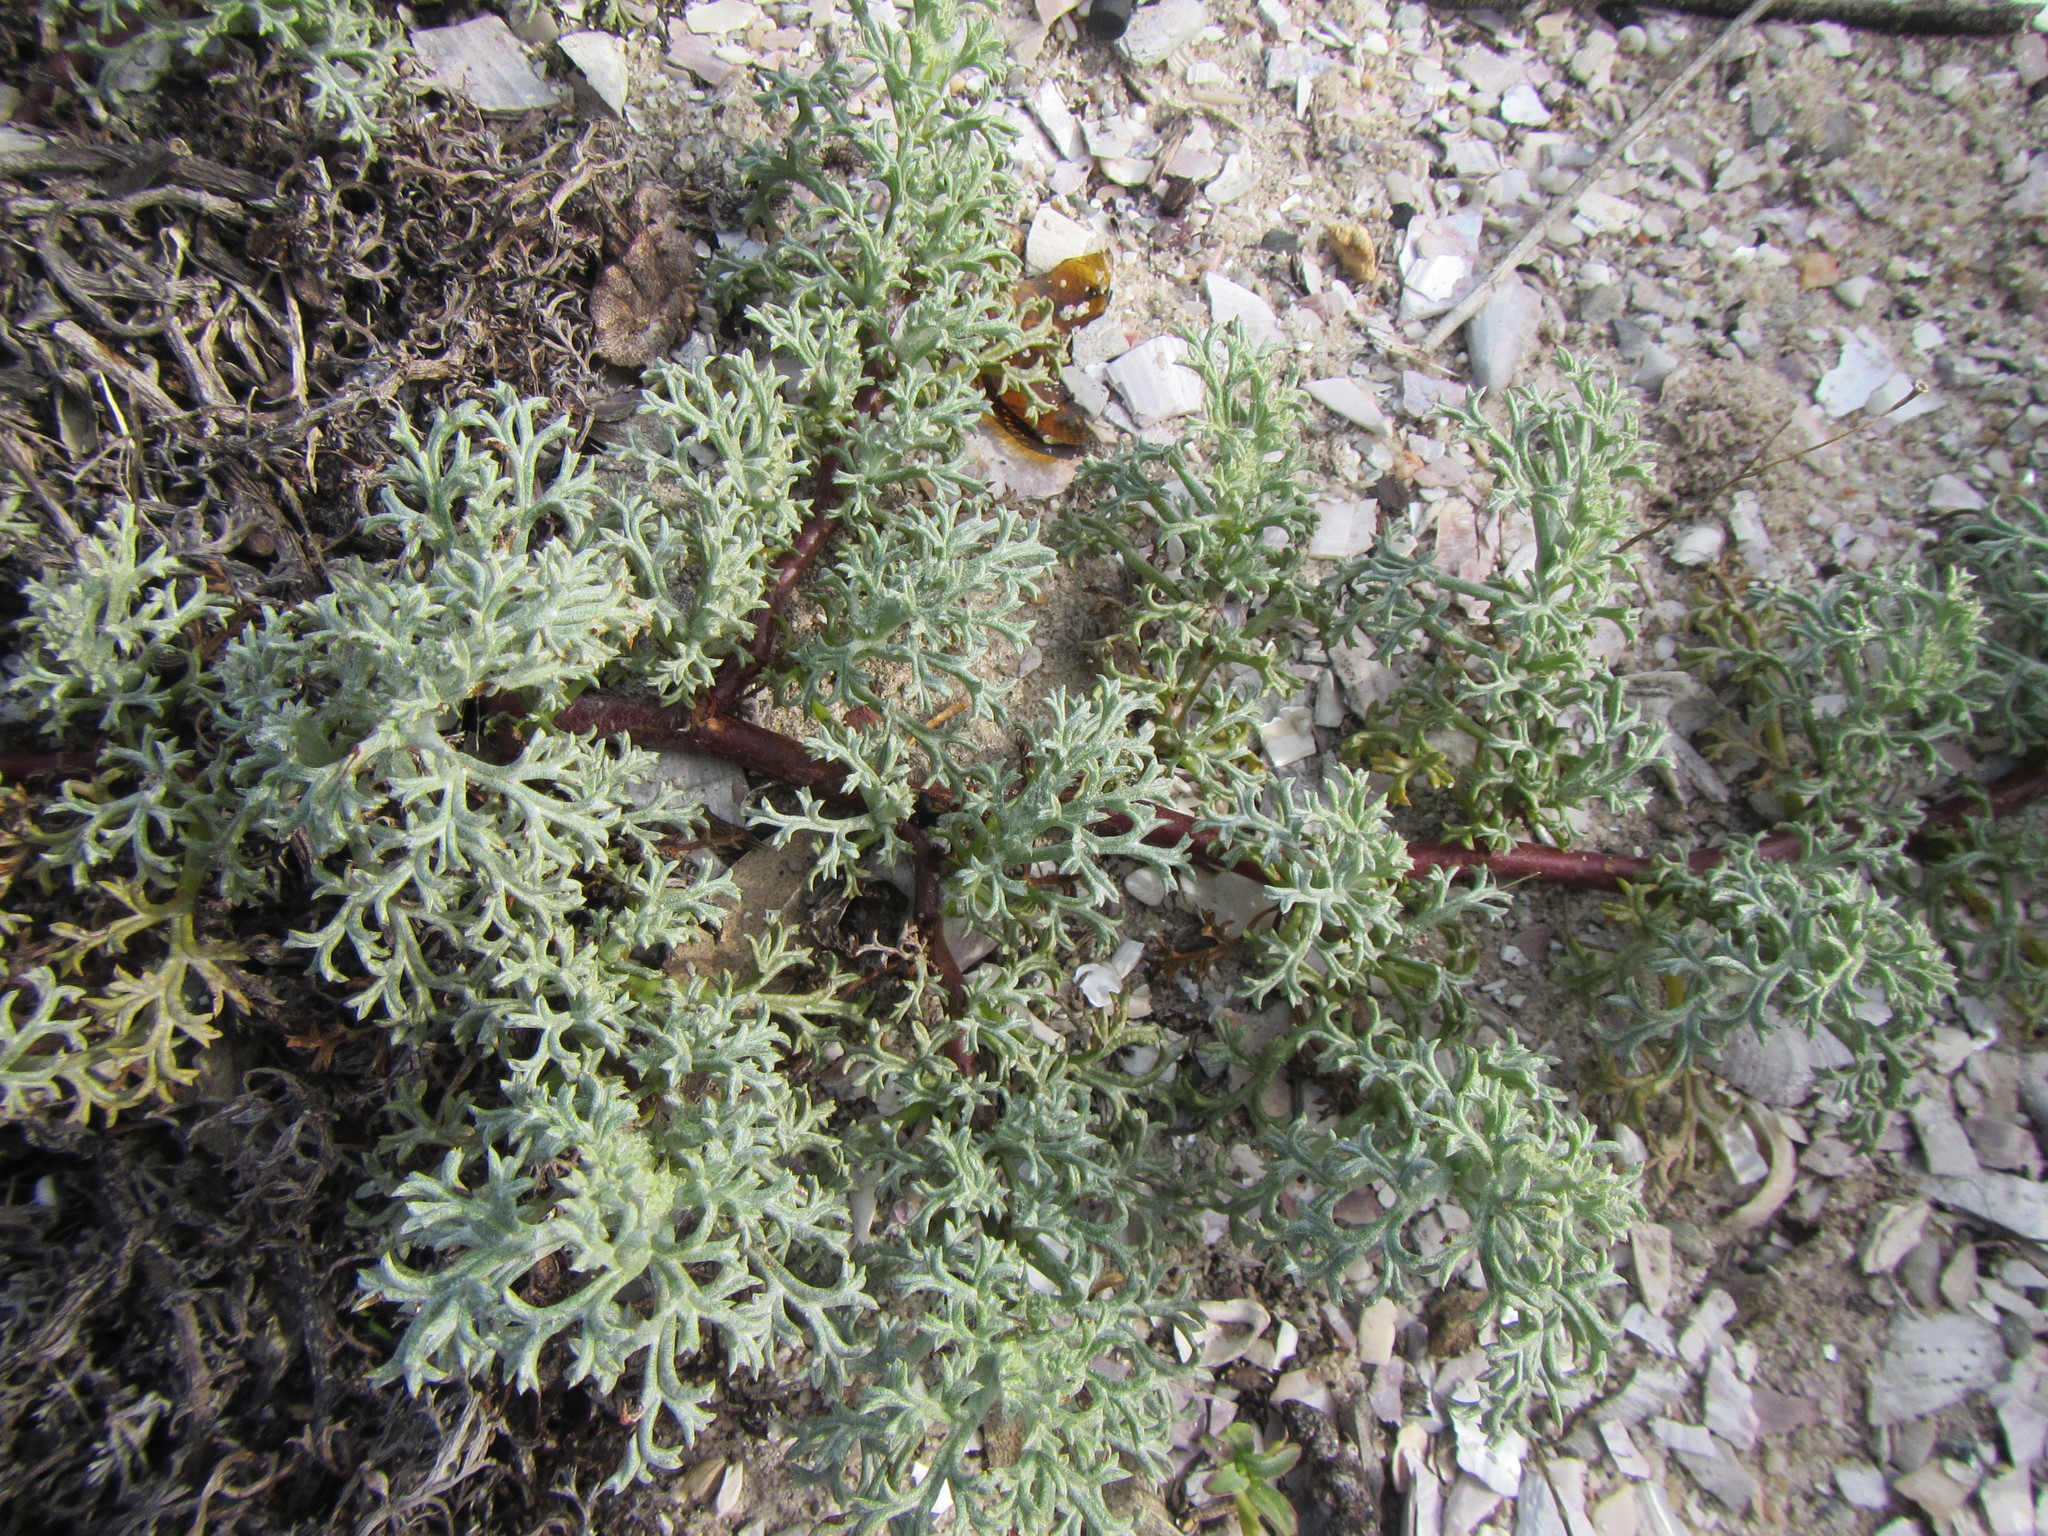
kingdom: Plantae
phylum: Tracheophyta
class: Magnoliopsida
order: Malvales
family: Neuradaceae
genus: Grielum
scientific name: Grielum grandiflorum
